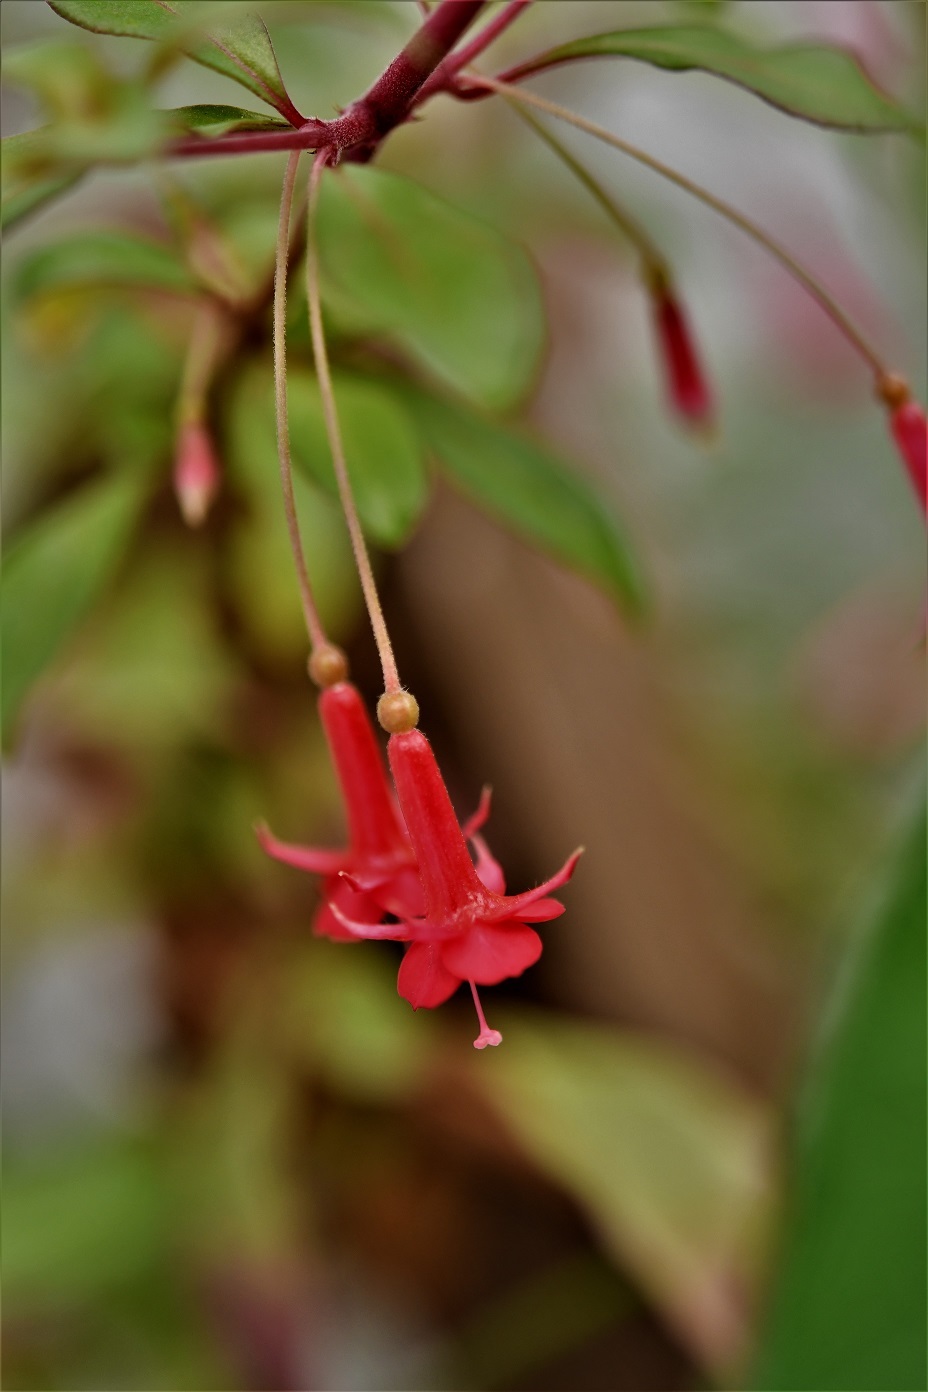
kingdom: Plantae
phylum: Tracheophyta
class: Magnoliopsida
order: Myrtales
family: Onagraceae
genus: Fuchsia
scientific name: Fuchsia microphylla
